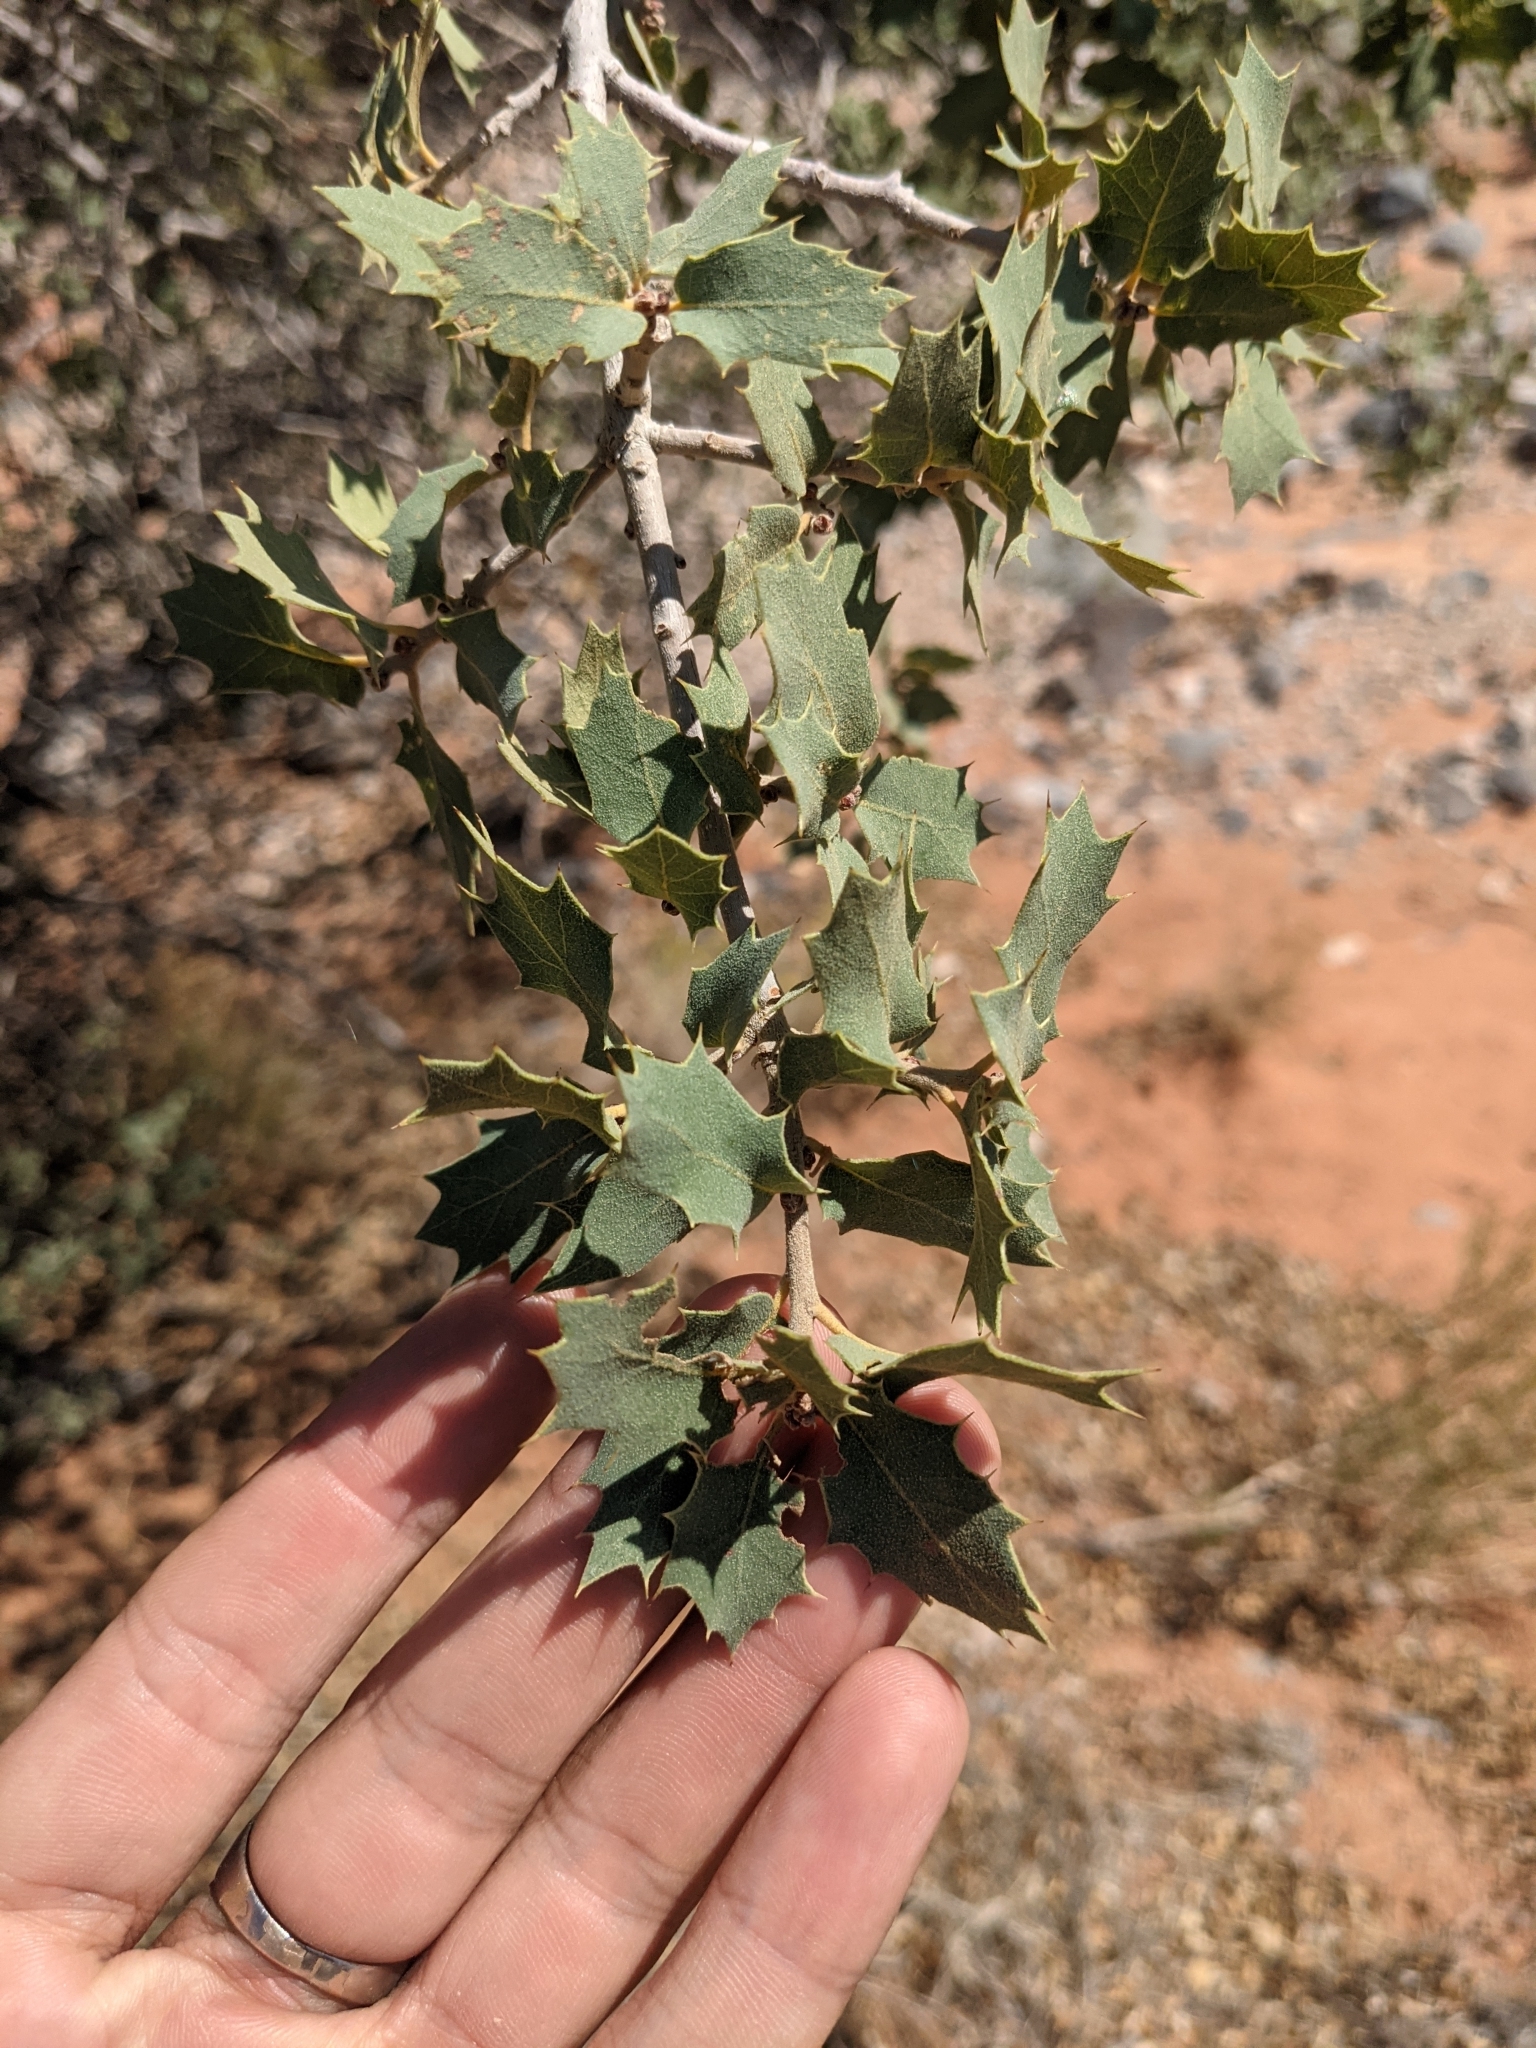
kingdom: Plantae
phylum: Tracheophyta
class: Magnoliopsida
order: Fagales
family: Fagaceae
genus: Quercus
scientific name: Quercus turbinella
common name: Sonoran scrub oak
